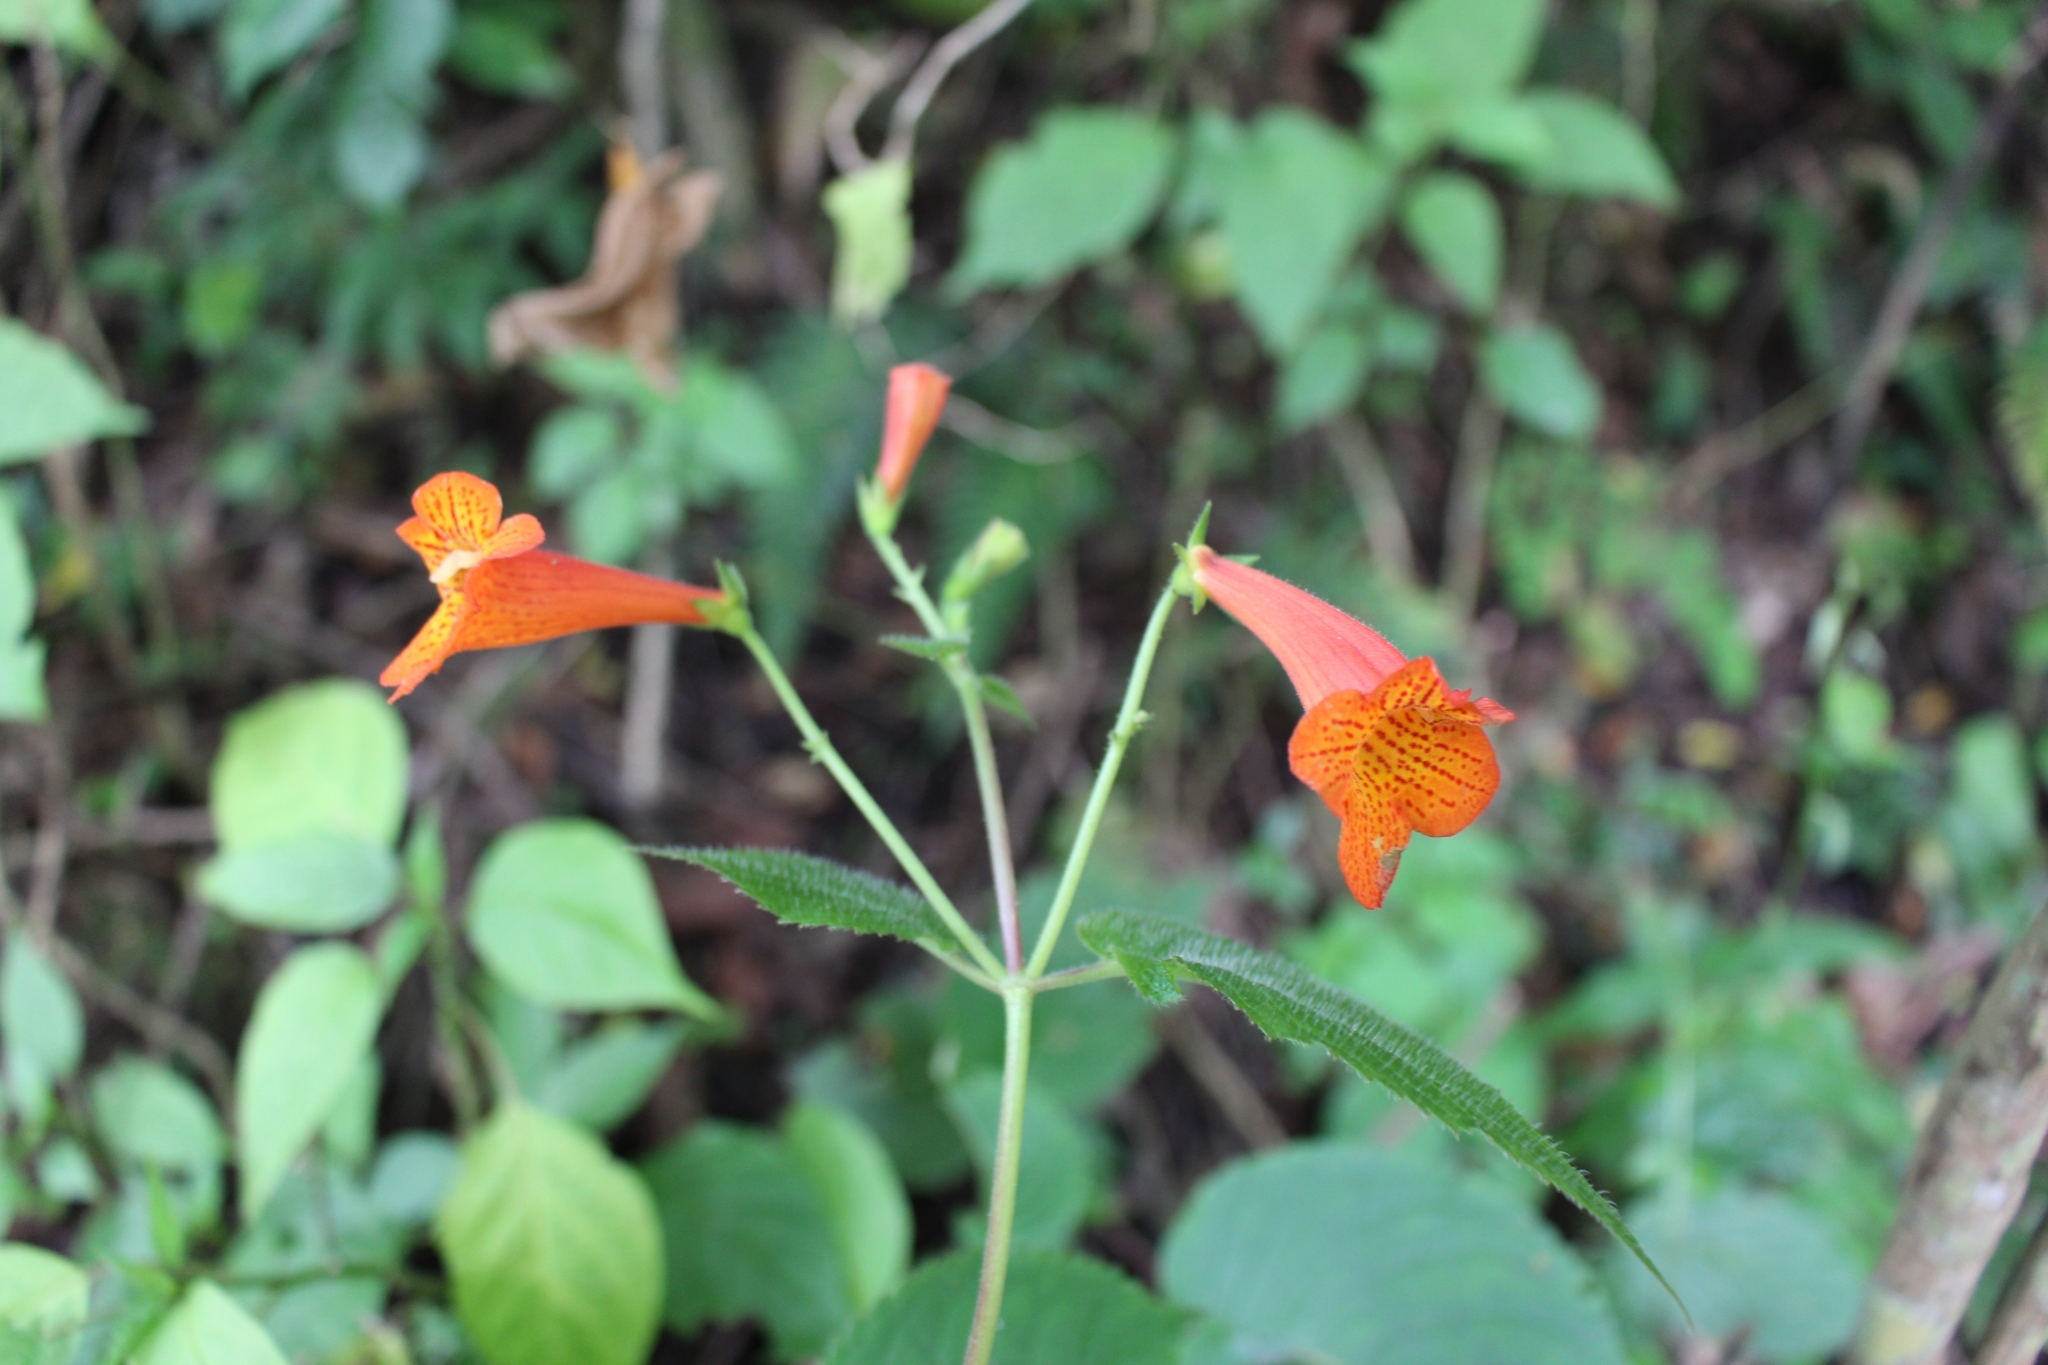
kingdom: Plantae
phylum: Tracheophyta
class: Magnoliopsida
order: Lamiales
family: Gesneriaceae
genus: Achimenes
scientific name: Achimenes pedunculata
